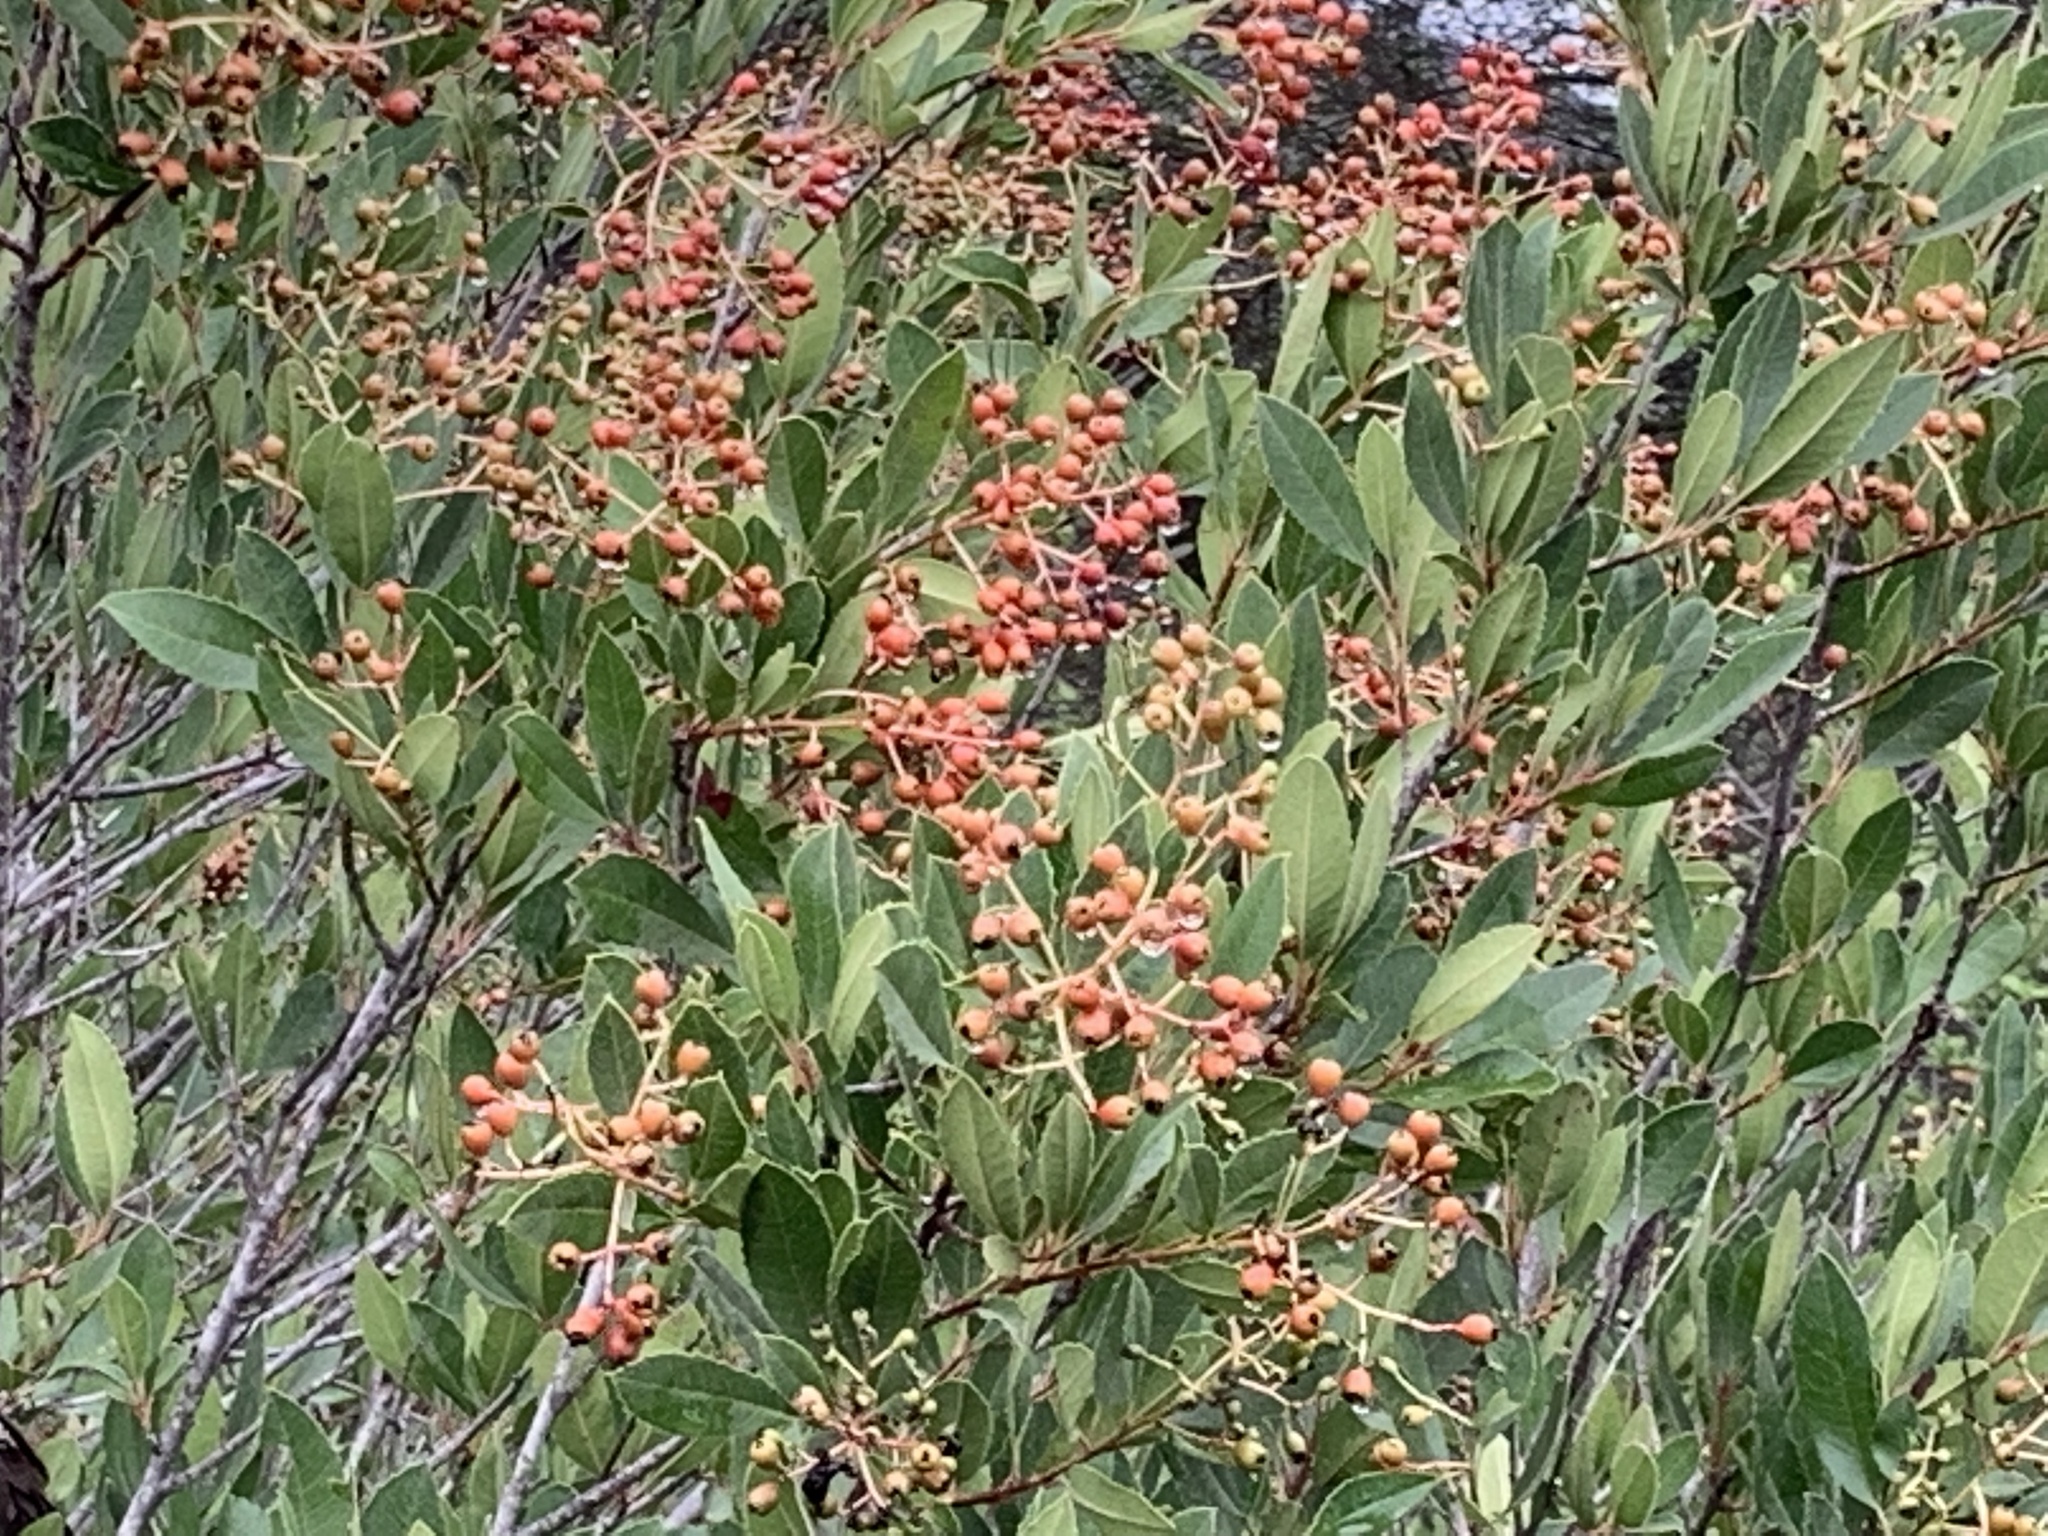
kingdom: Plantae
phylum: Tracheophyta
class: Magnoliopsida
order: Rosales
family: Rosaceae
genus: Heteromeles
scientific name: Heteromeles arbutifolia
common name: California-holly
